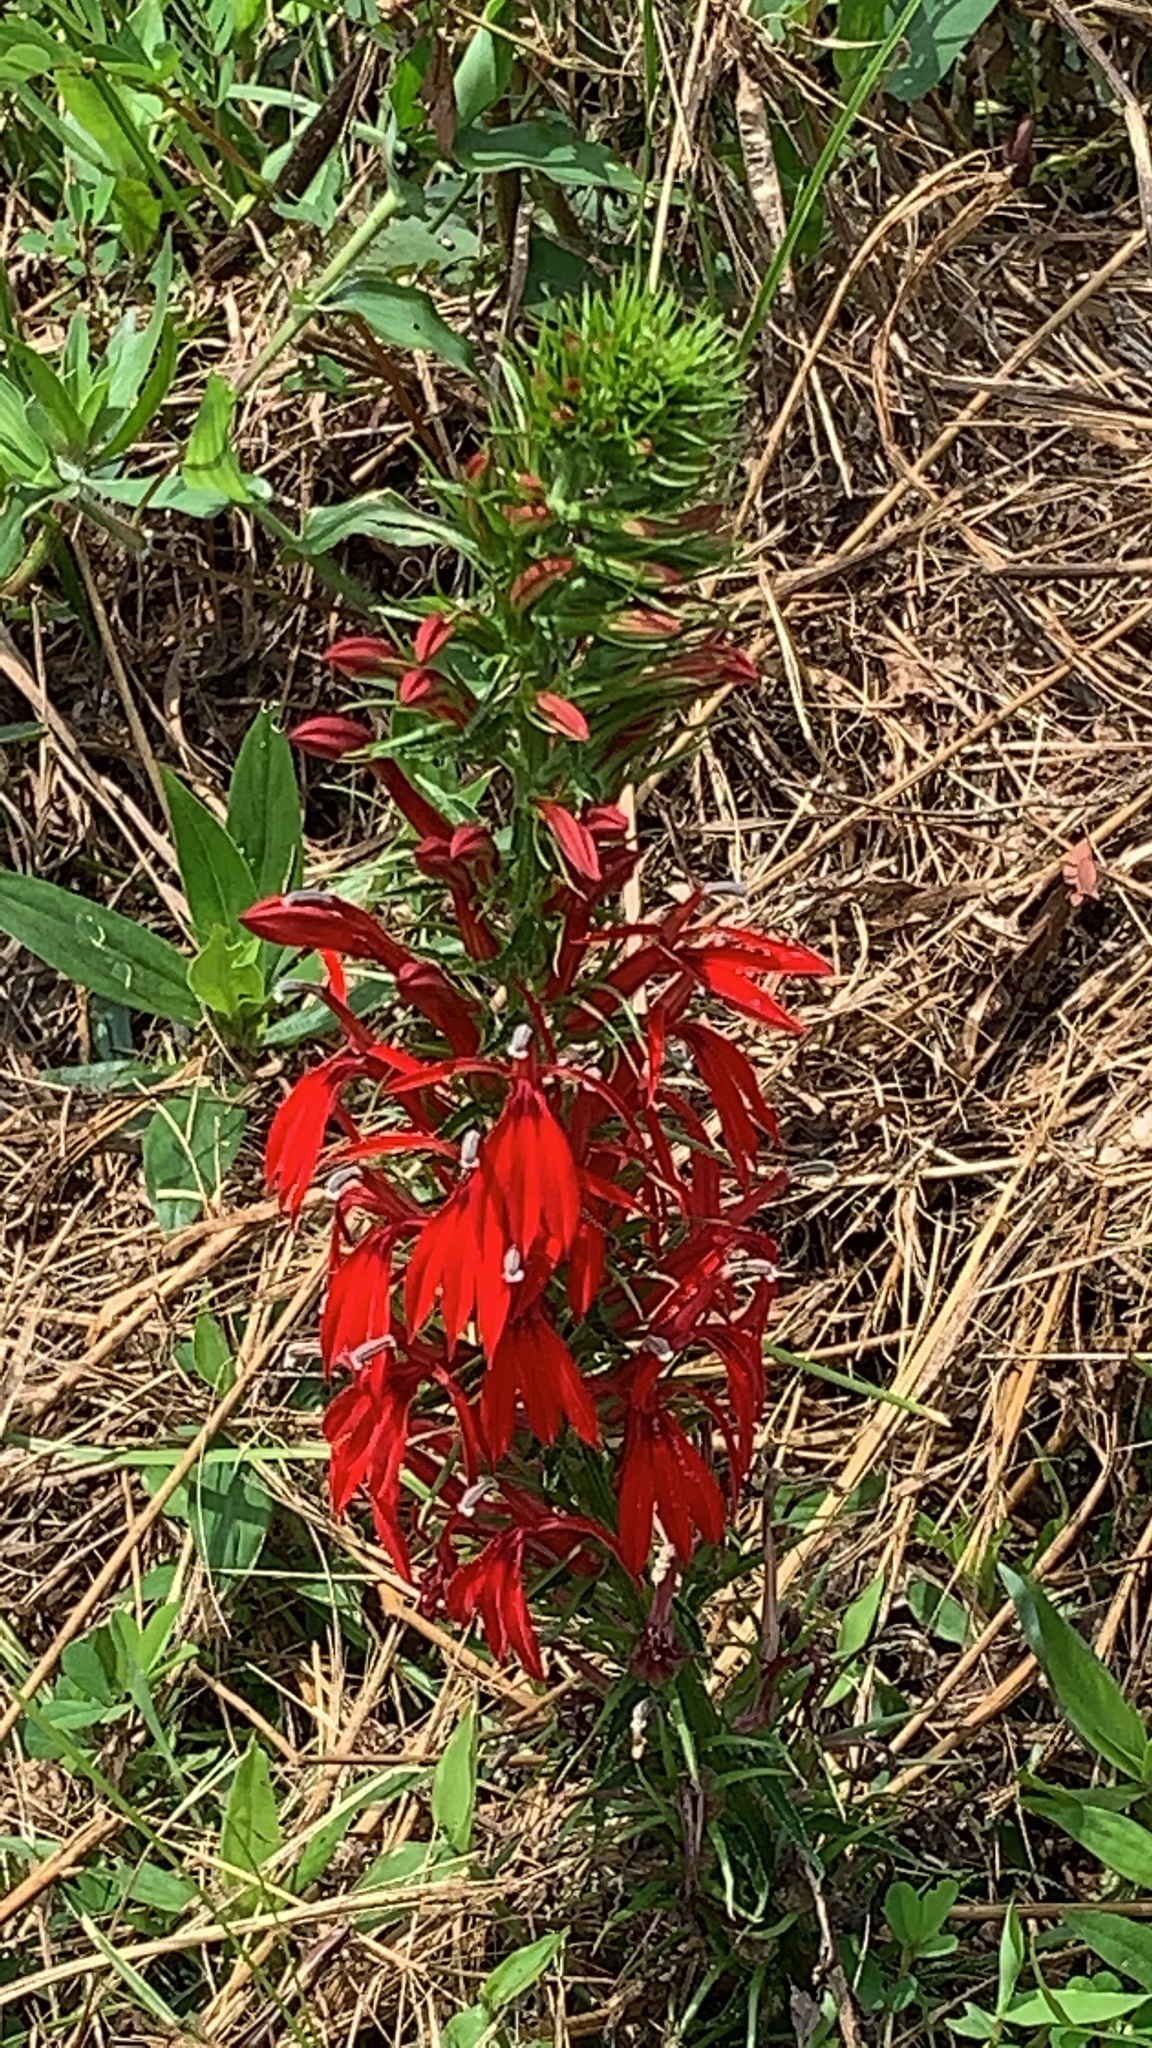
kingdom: Plantae
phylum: Tracheophyta
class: Magnoliopsida
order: Asterales
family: Campanulaceae
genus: Lobelia
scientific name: Lobelia cardinalis
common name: Cardinal flower
